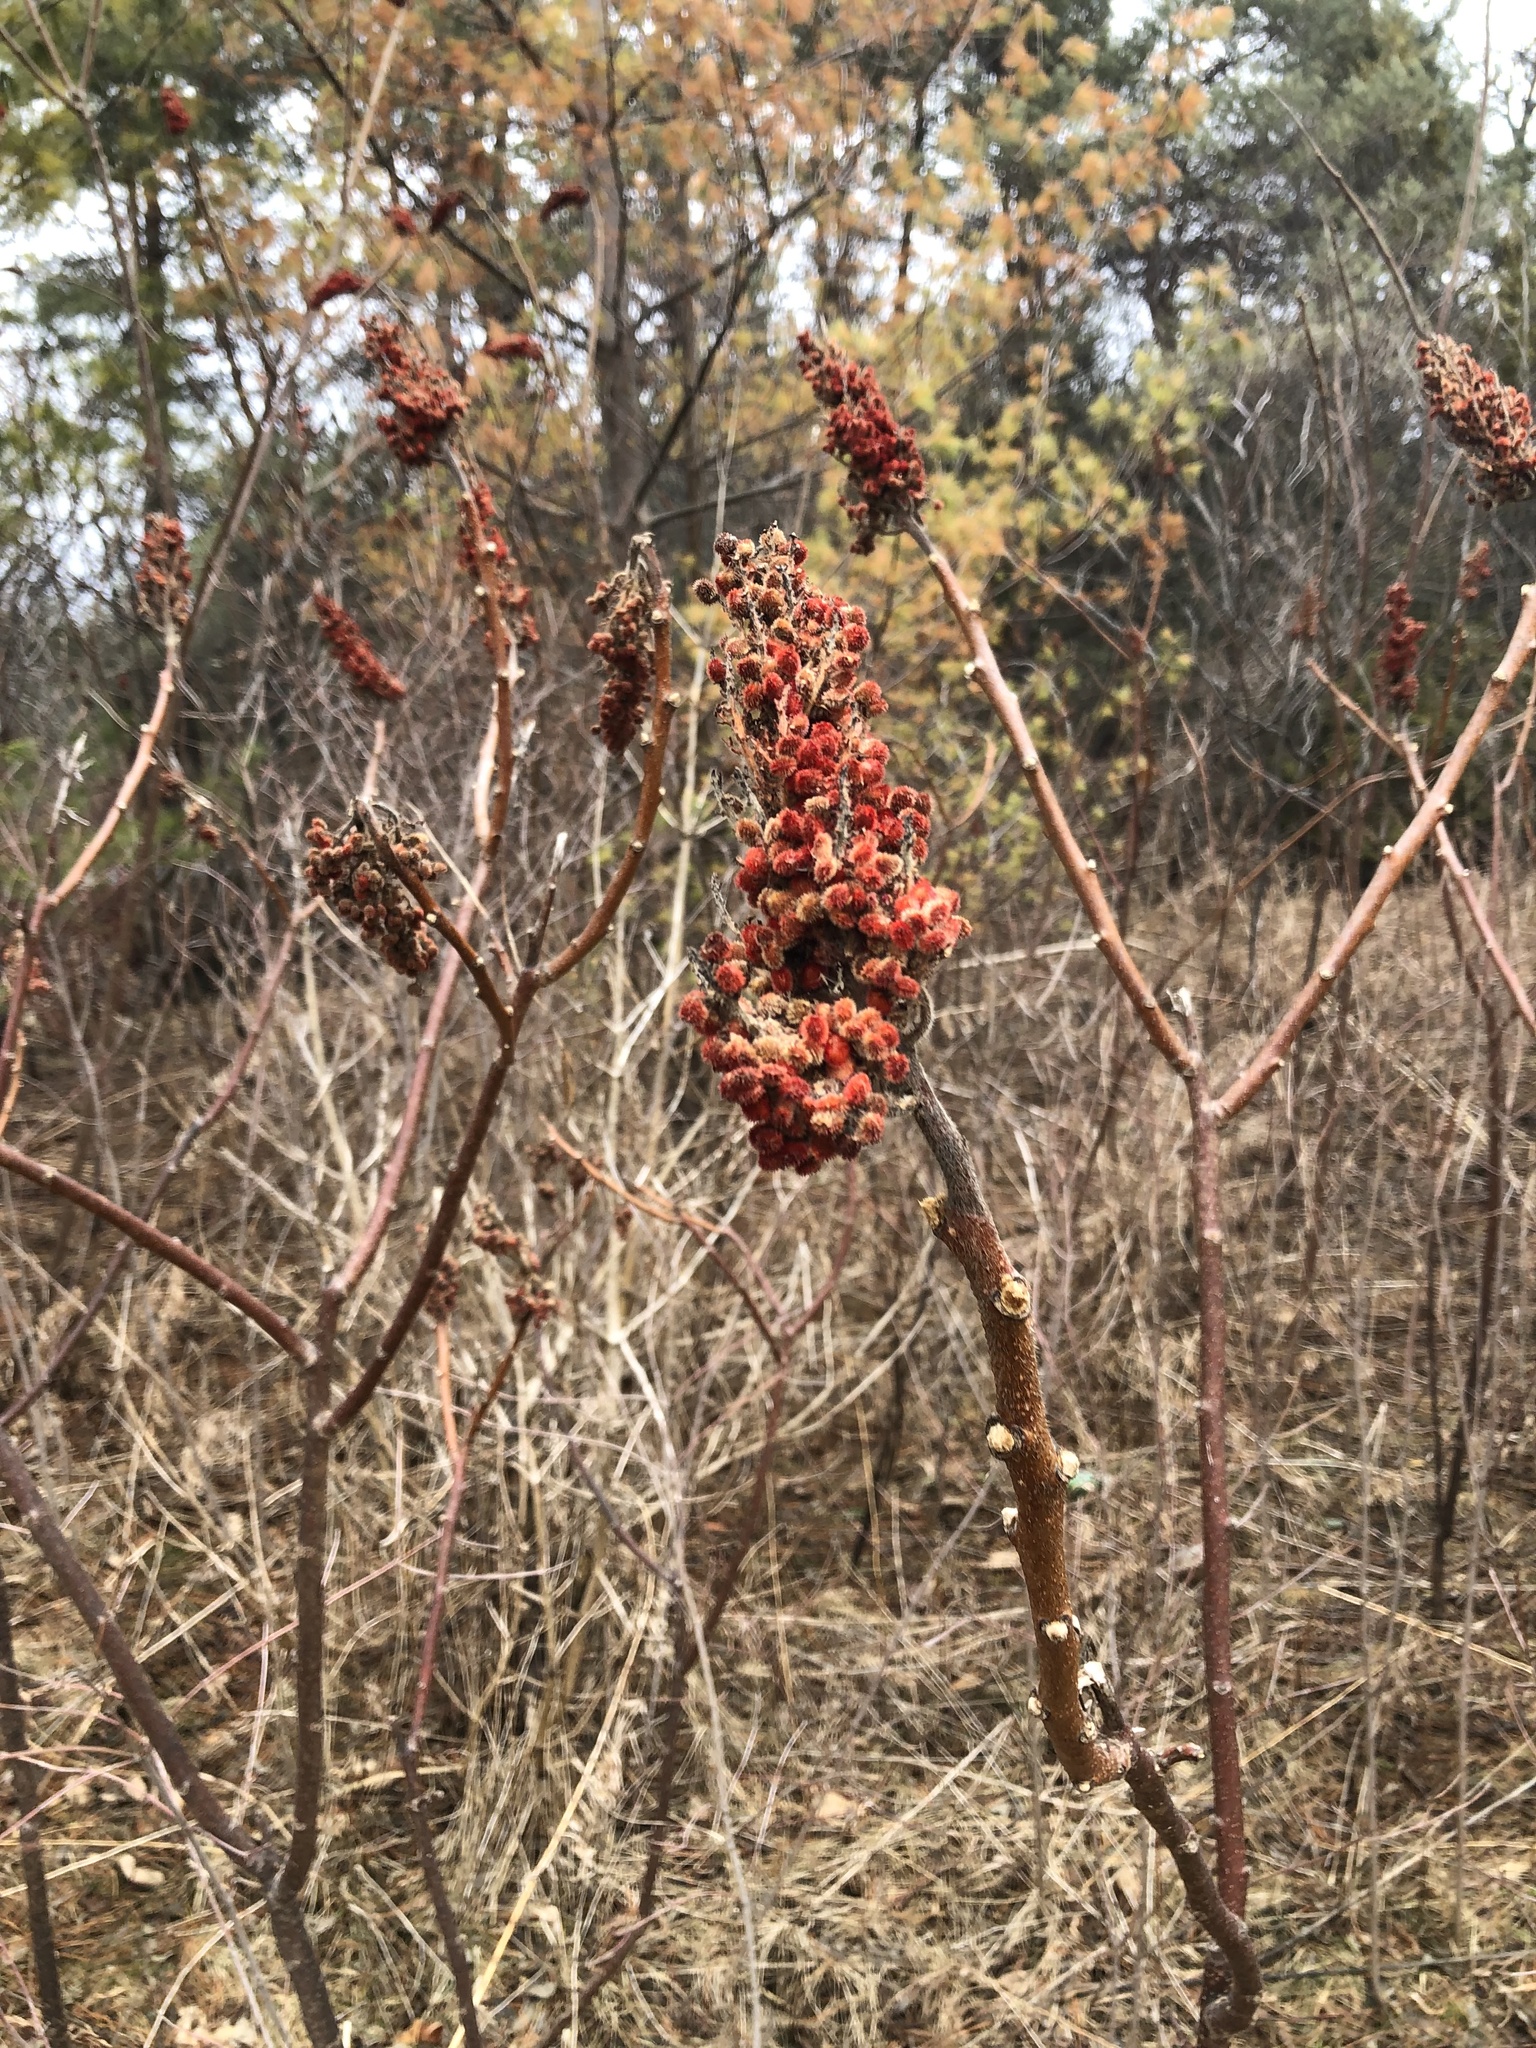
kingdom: Plantae
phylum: Tracheophyta
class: Magnoliopsida
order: Sapindales
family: Anacardiaceae
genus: Rhus
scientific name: Rhus typhina
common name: Staghorn sumac
